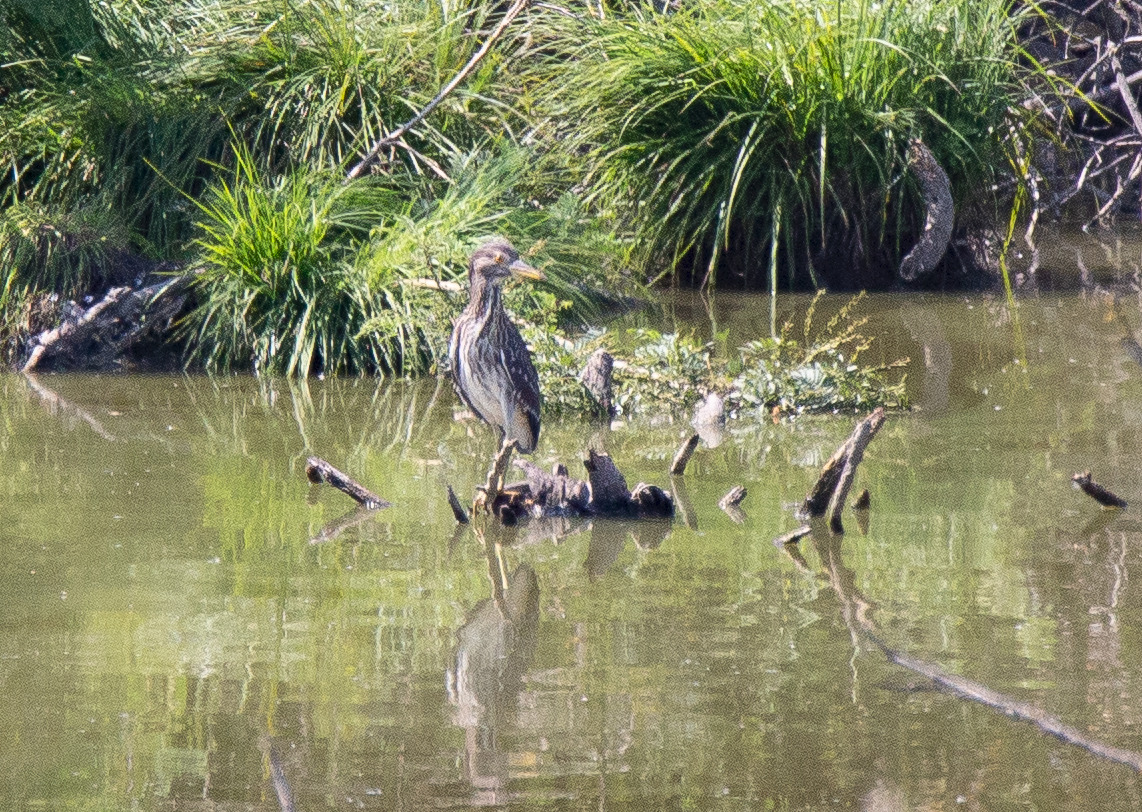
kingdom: Animalia
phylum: Chordata
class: Aves
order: Pelecaniformes
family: Ardeidae
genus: Nycticorax
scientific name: Nycticorax nycticorax
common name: Black-crowned night heron
